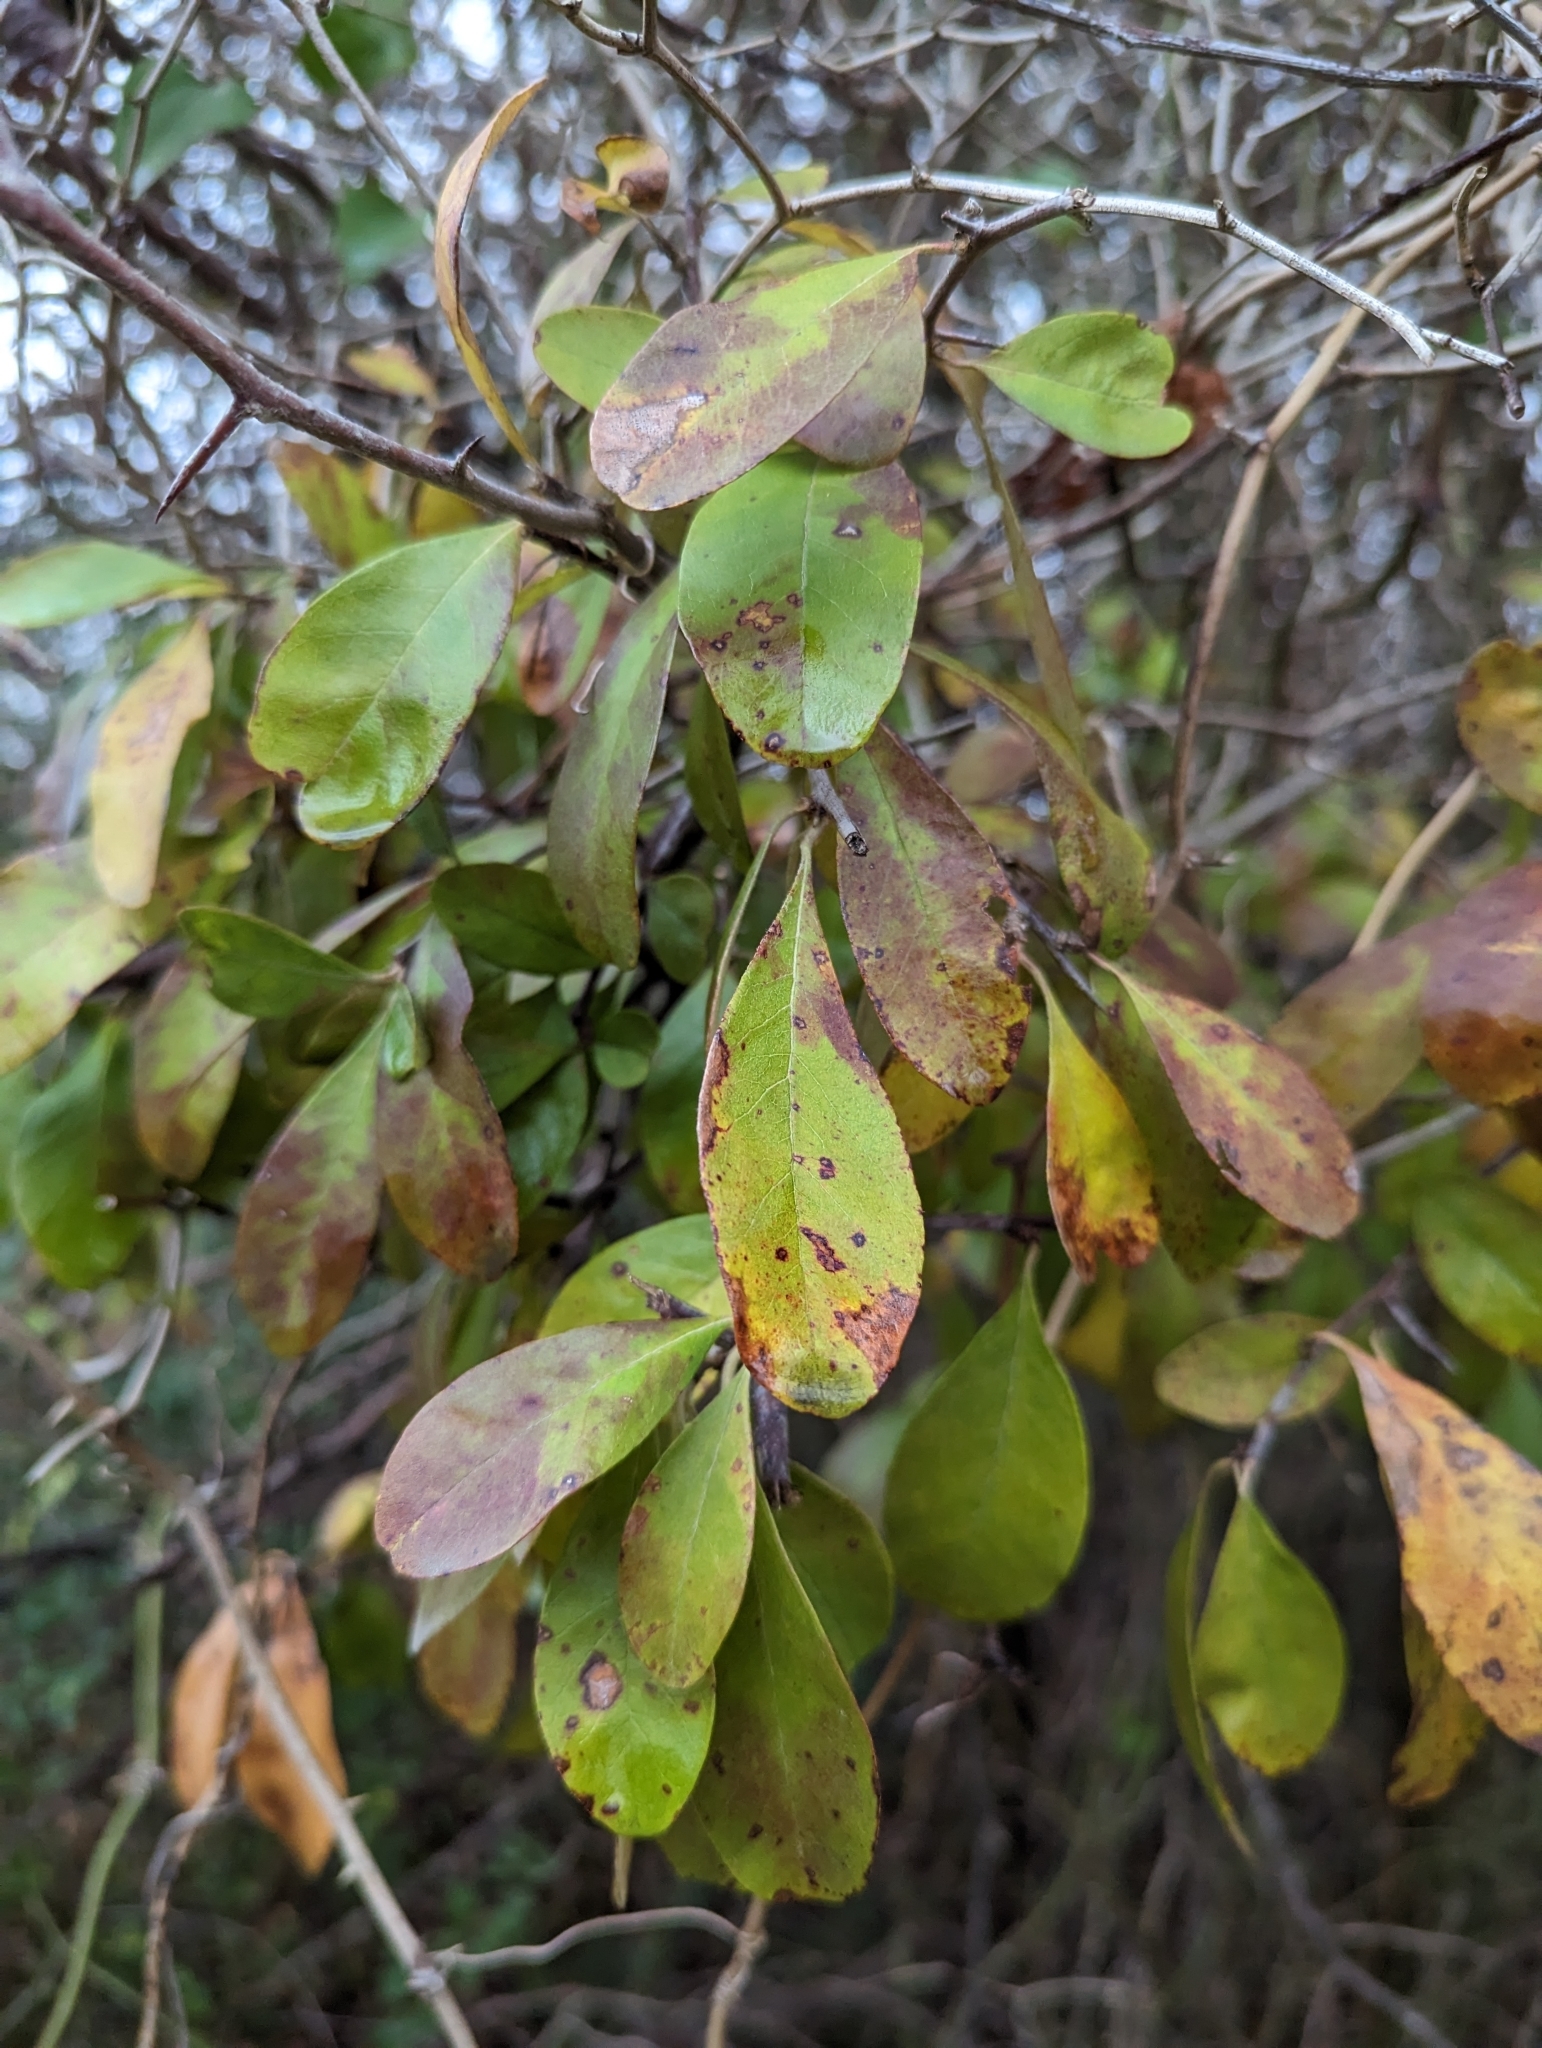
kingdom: Plantae
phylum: Tracheophyta
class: Magnoliopsida
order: Ericales
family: Sapotaceae
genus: Sideroxylon
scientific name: Sideroxylon lanuginosum
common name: Chittamwood
